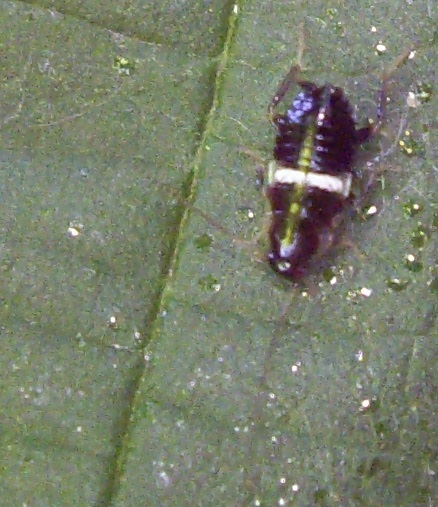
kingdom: Animalia
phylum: Arthropoda
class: Insecta
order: Blattodea
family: Ectobiidae
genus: Planuncus
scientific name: Planuncus tingitanus
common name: Variable cockroach
